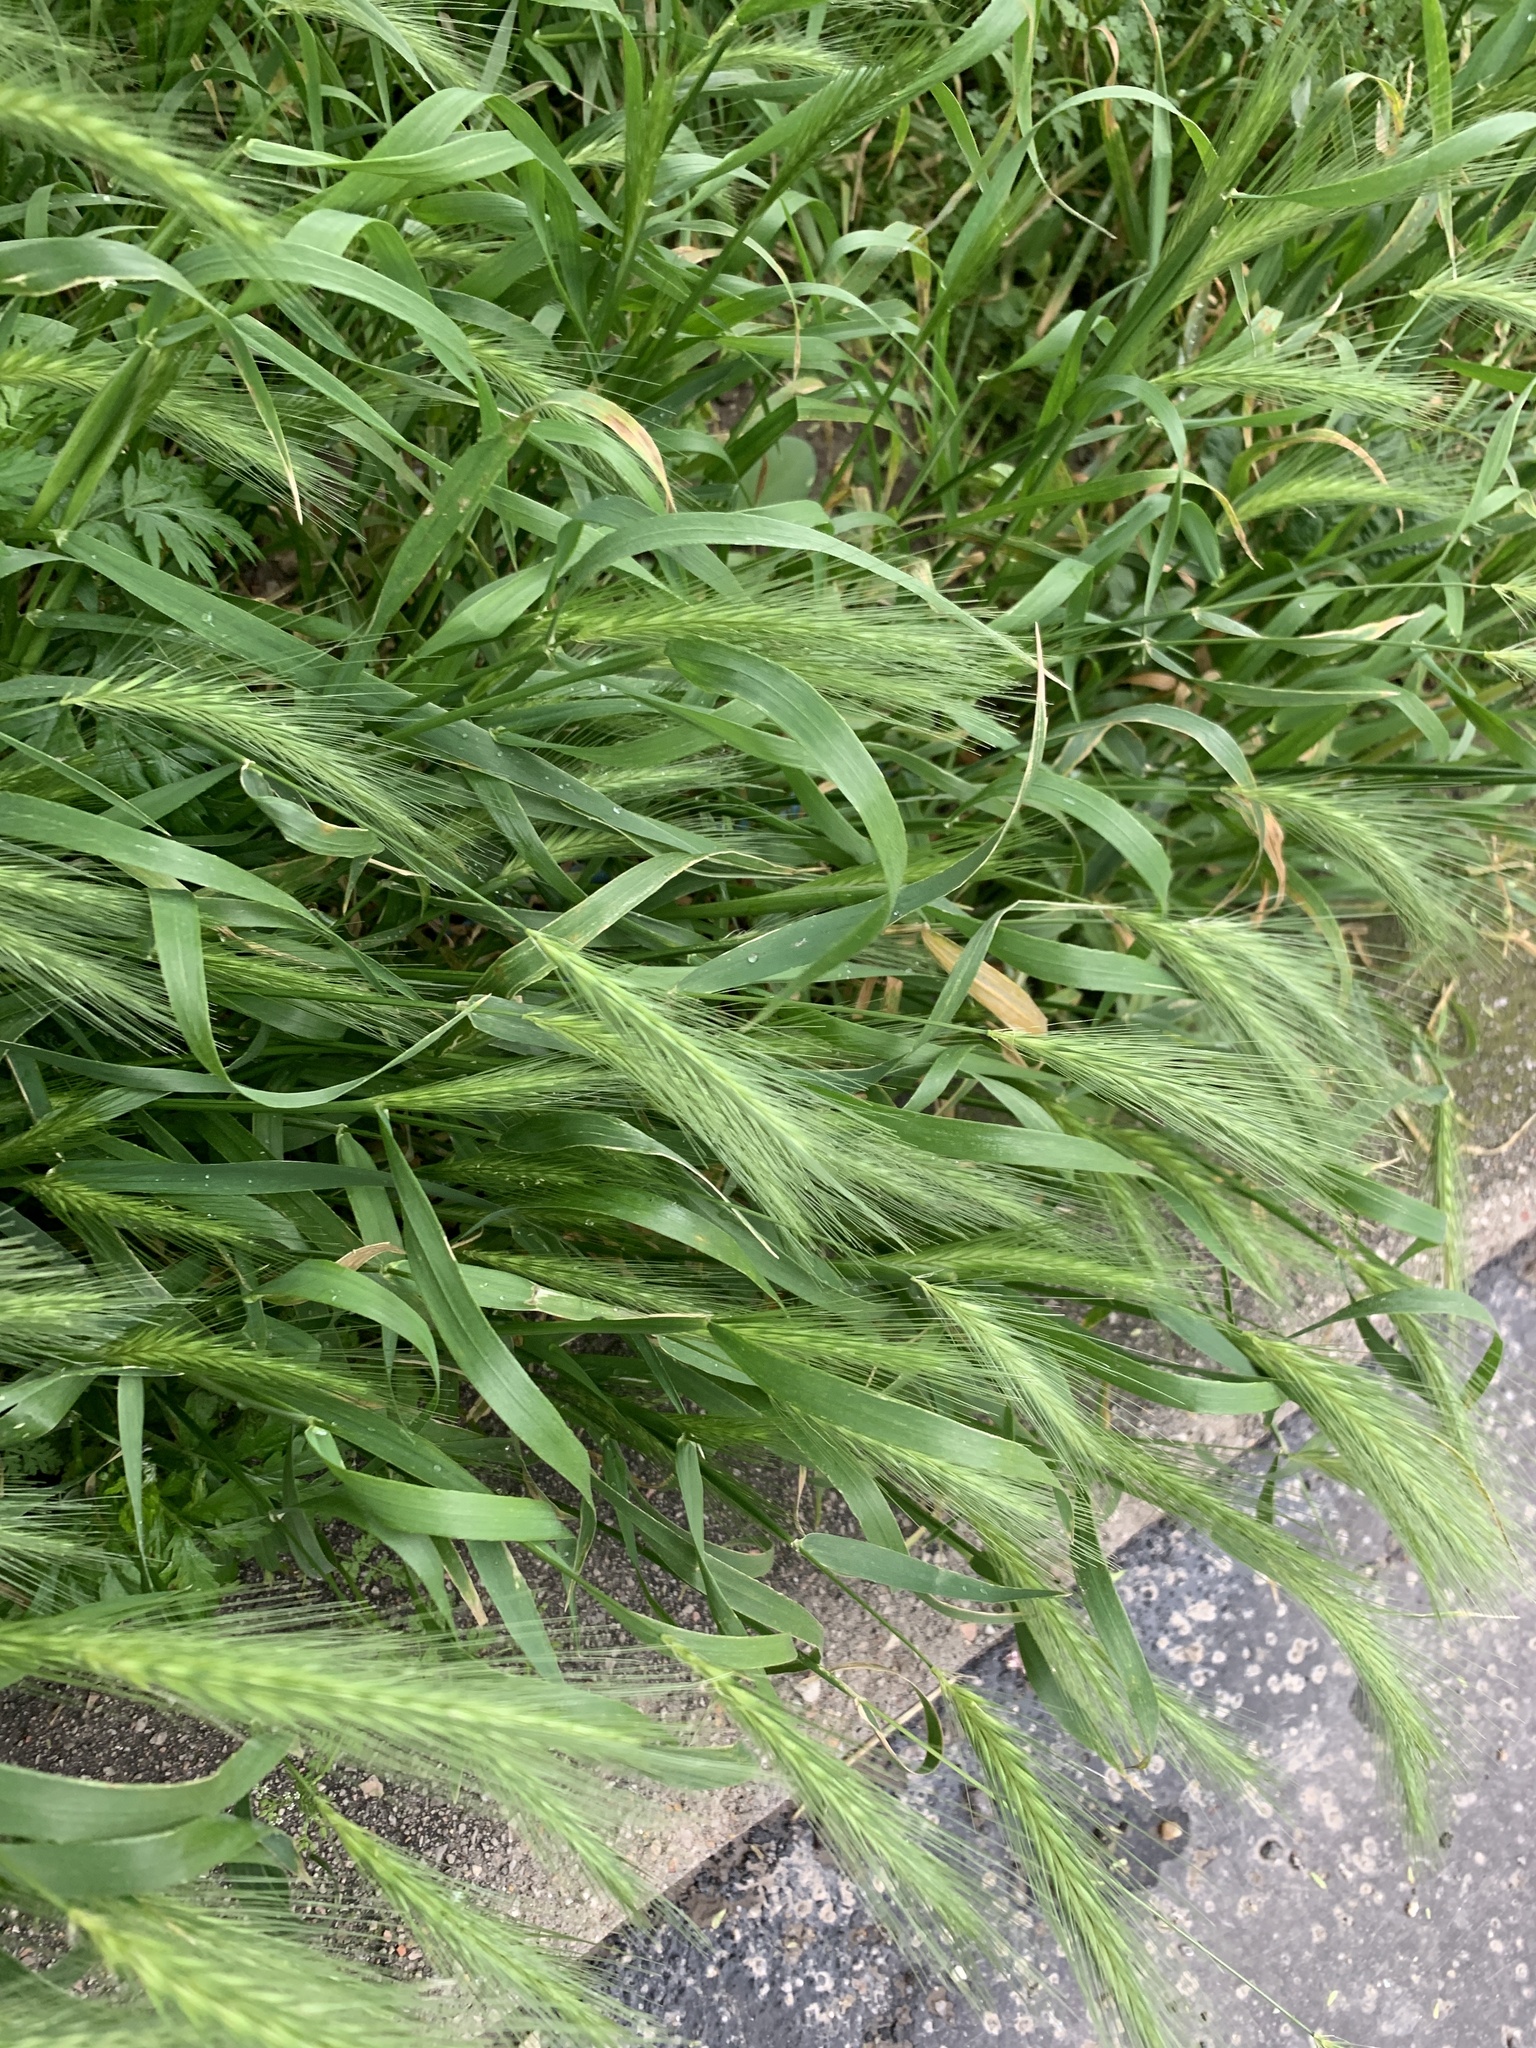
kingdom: Plantae
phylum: Tracheophyta
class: Liliopsida
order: Poales
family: Poaceae
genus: Hordeum
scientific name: Hordeum murinum
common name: Wall barley
